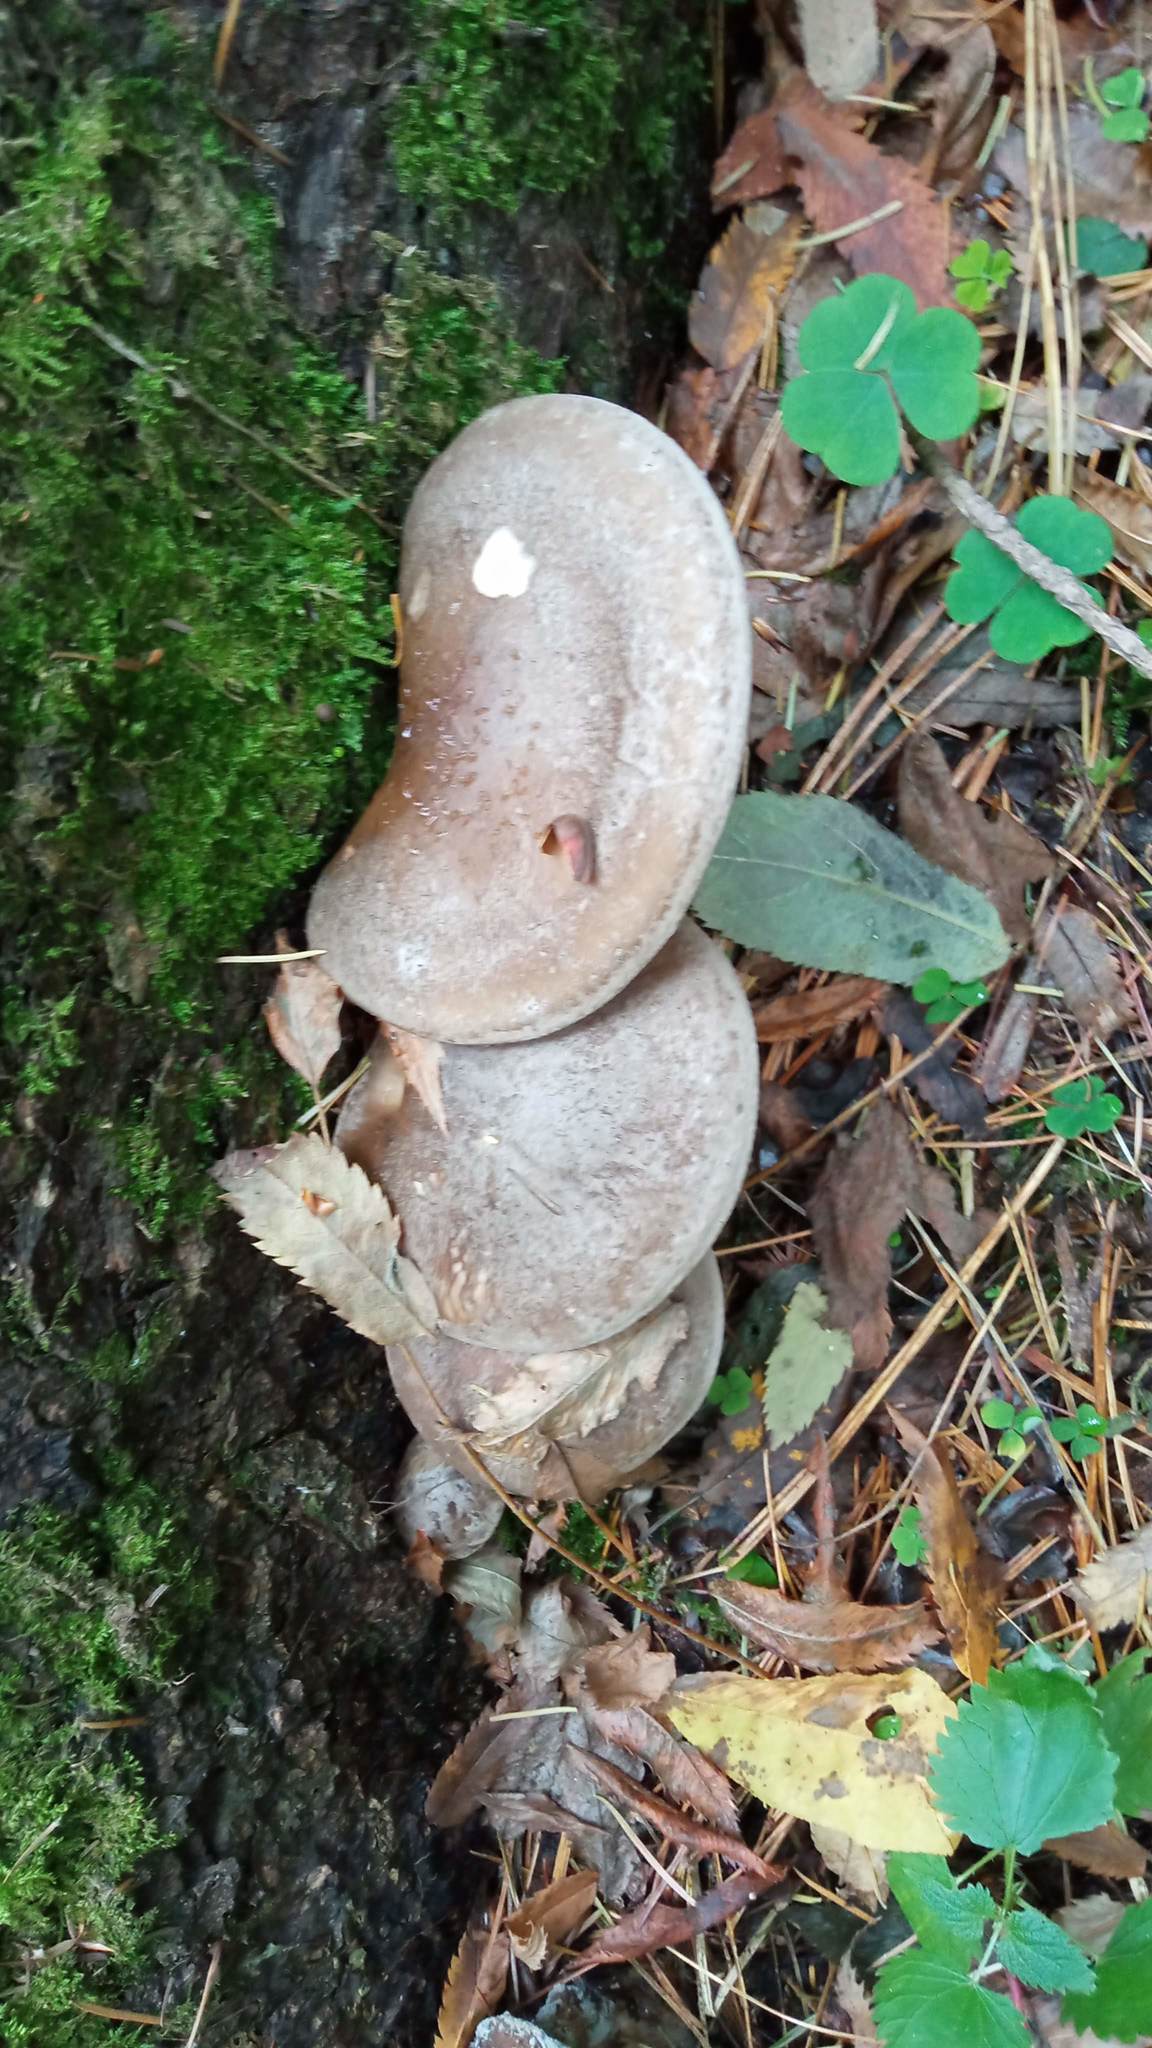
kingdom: Fungi
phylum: Basidiomycota
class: Agaricomycetes
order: Agaricales
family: Tricholomataceae
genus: Clitocybe
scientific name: Clitocybe nebularis
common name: Clouded agaric
